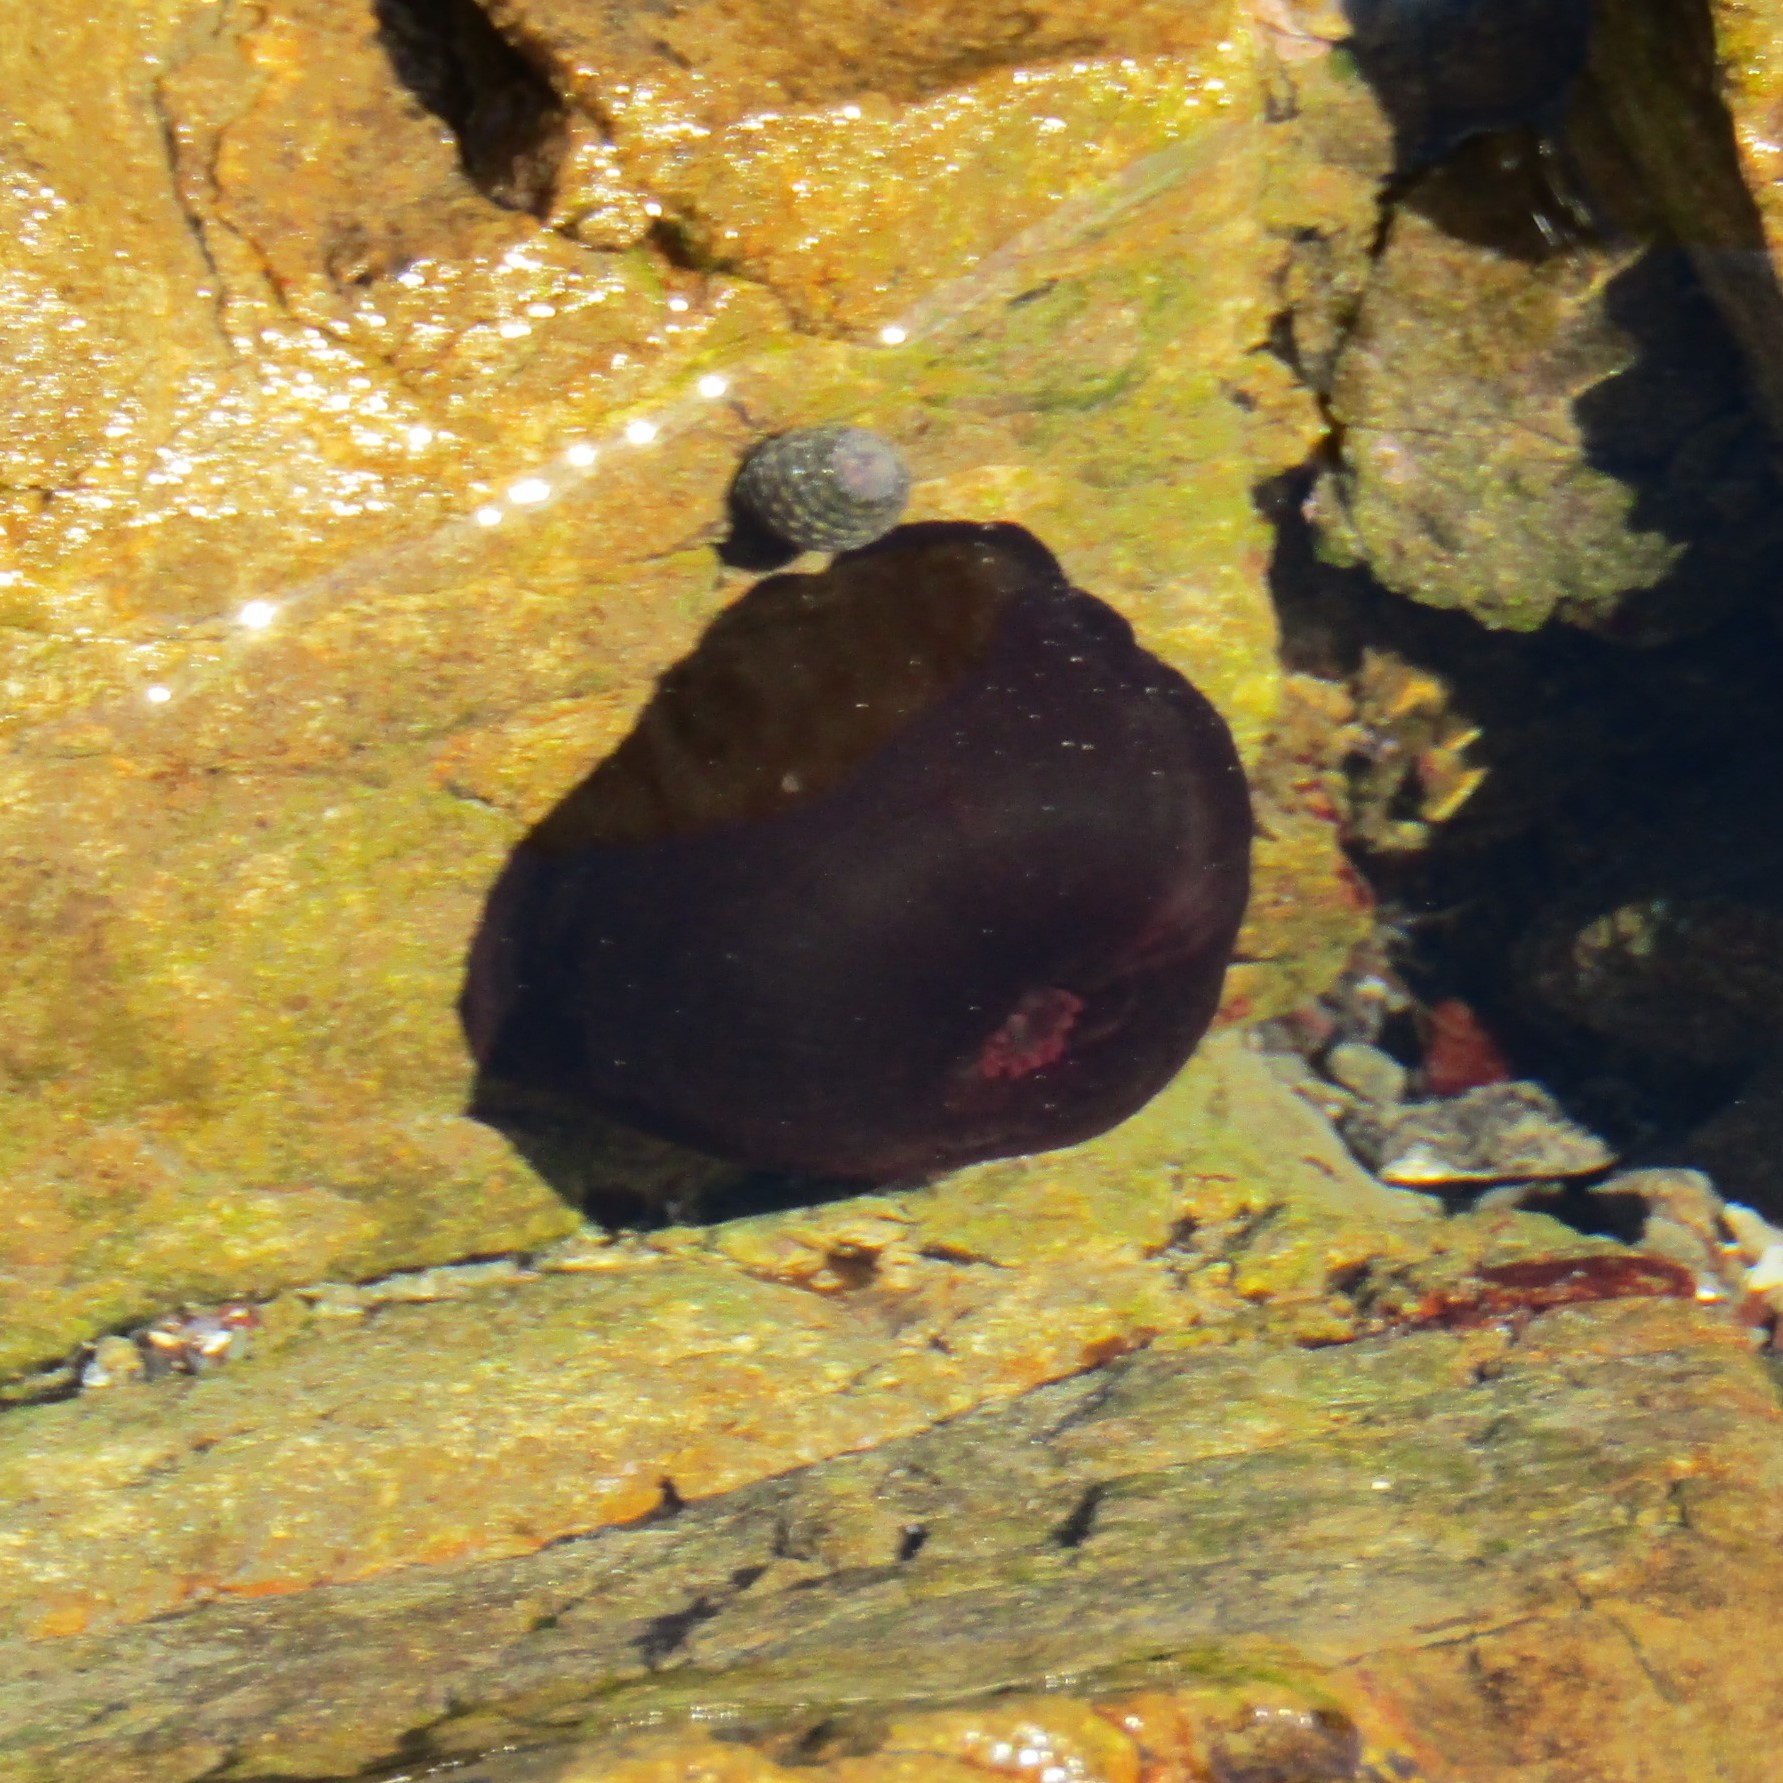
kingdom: Animalia
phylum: Cnidaria
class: Anthozoa
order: Actiniaria
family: Actiniidae
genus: Actinia
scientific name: Actinia tenebrosa
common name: Waratah anemone
